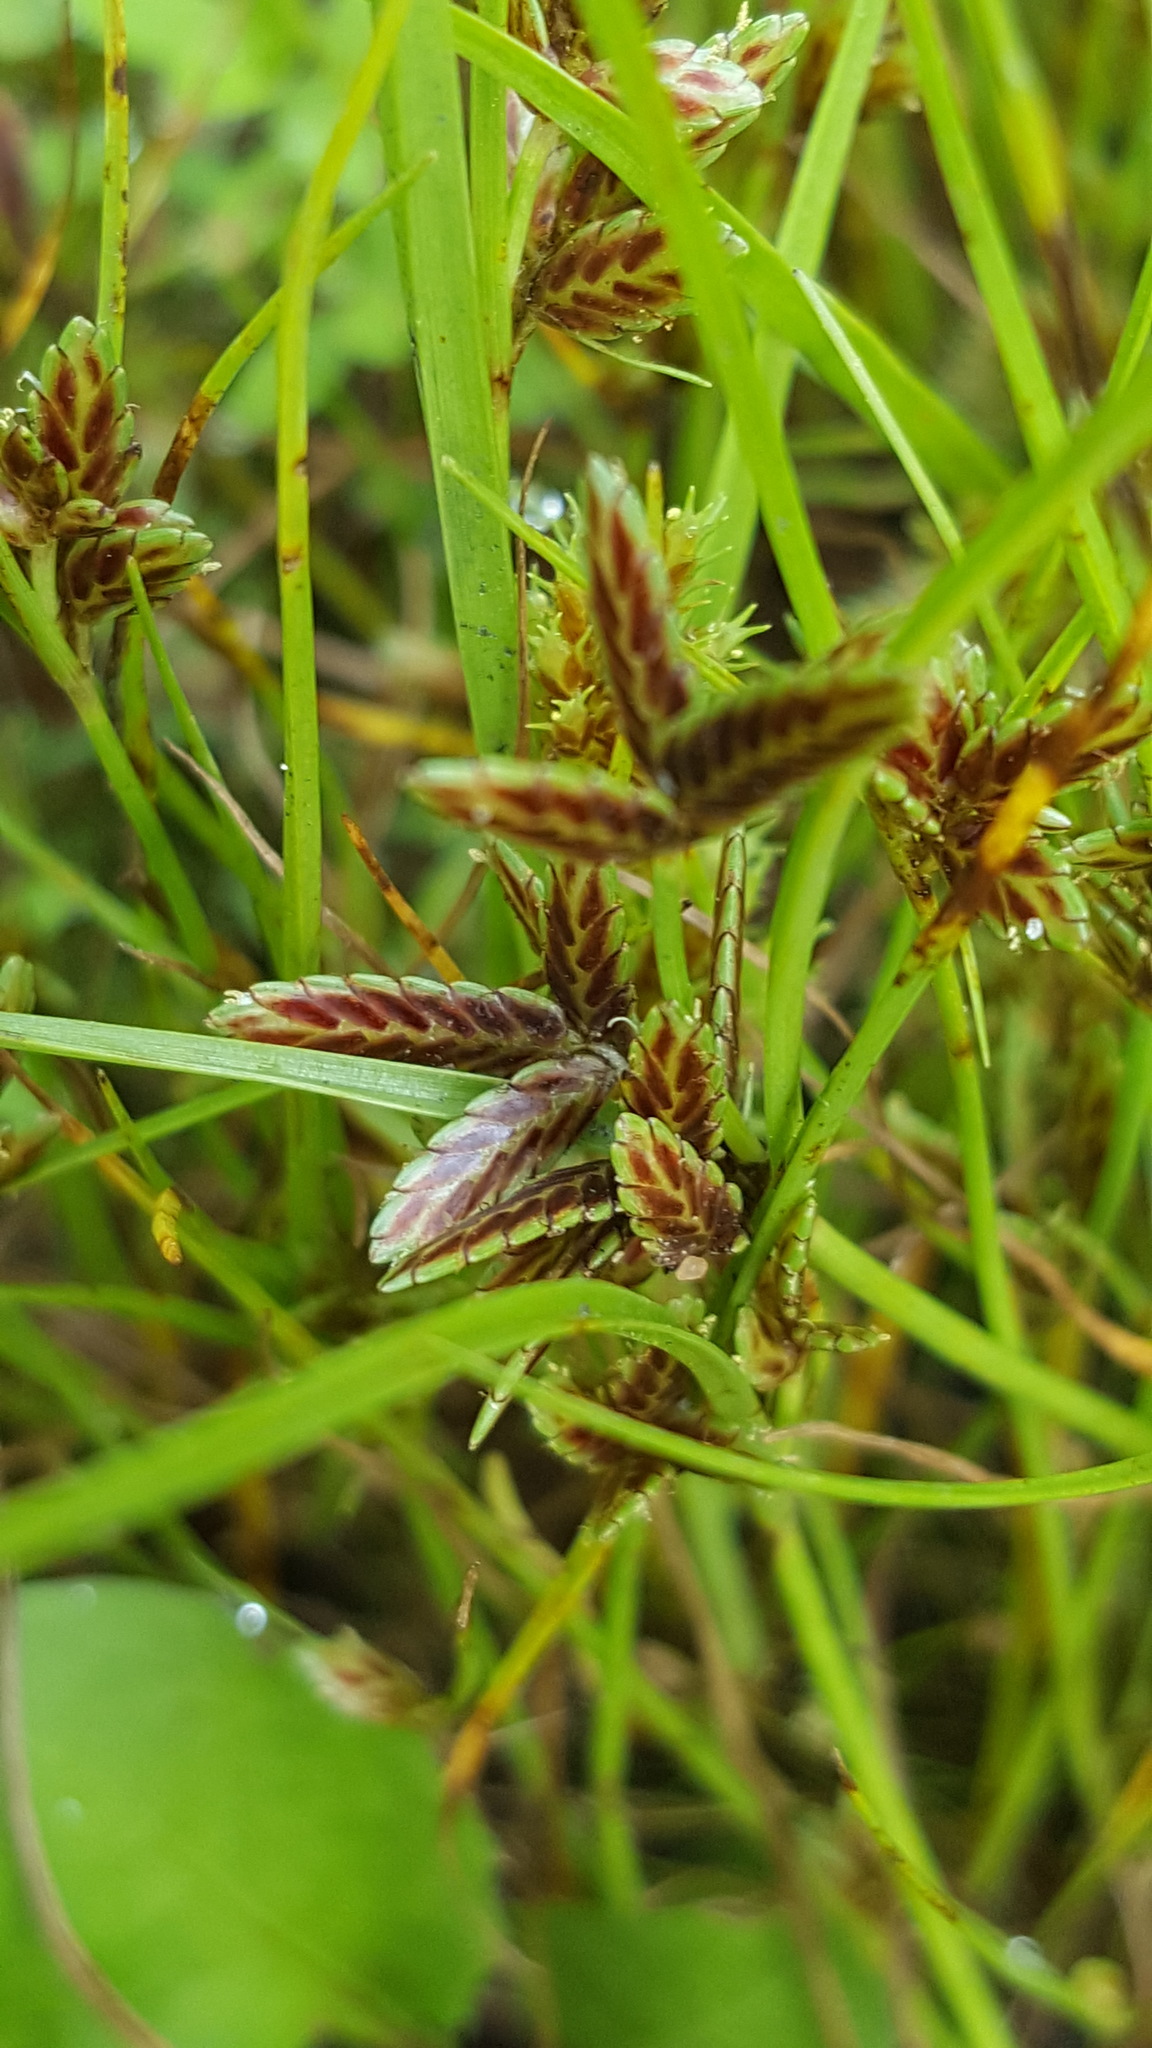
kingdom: Plantae
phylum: Tracheophyta
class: Liliopsida
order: Poales
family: Cyperaceae
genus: Cyperus
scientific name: Cyperus bipartitus
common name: Brook flatsedge
